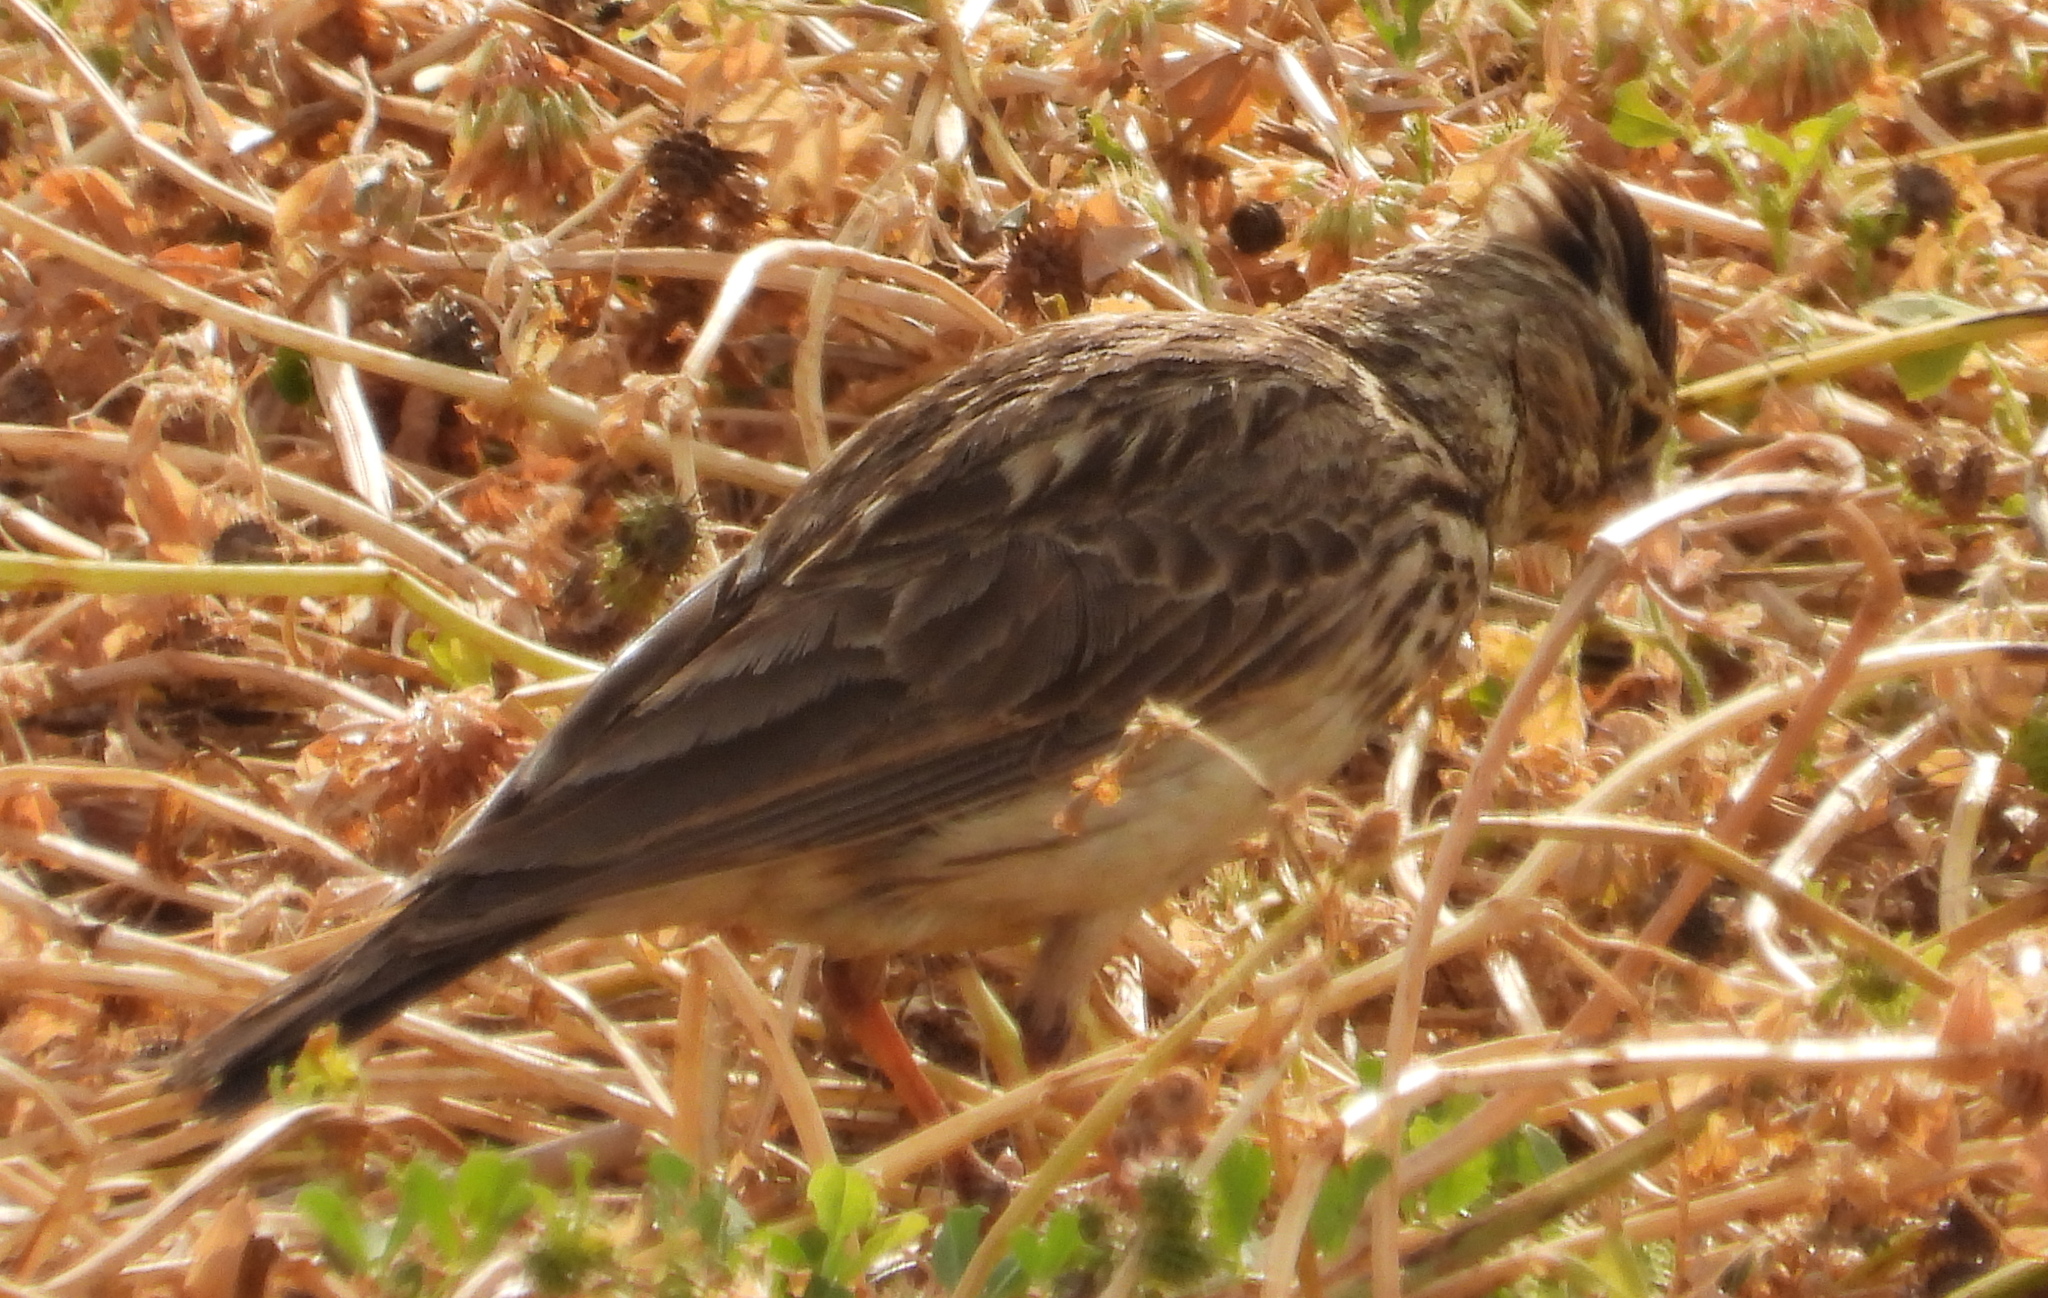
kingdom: Animalia
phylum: Chordata
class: Aves
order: Passeriformes
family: Alaudidae
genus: Galerida
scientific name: Galerida magnirostris
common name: Large-billed lark
